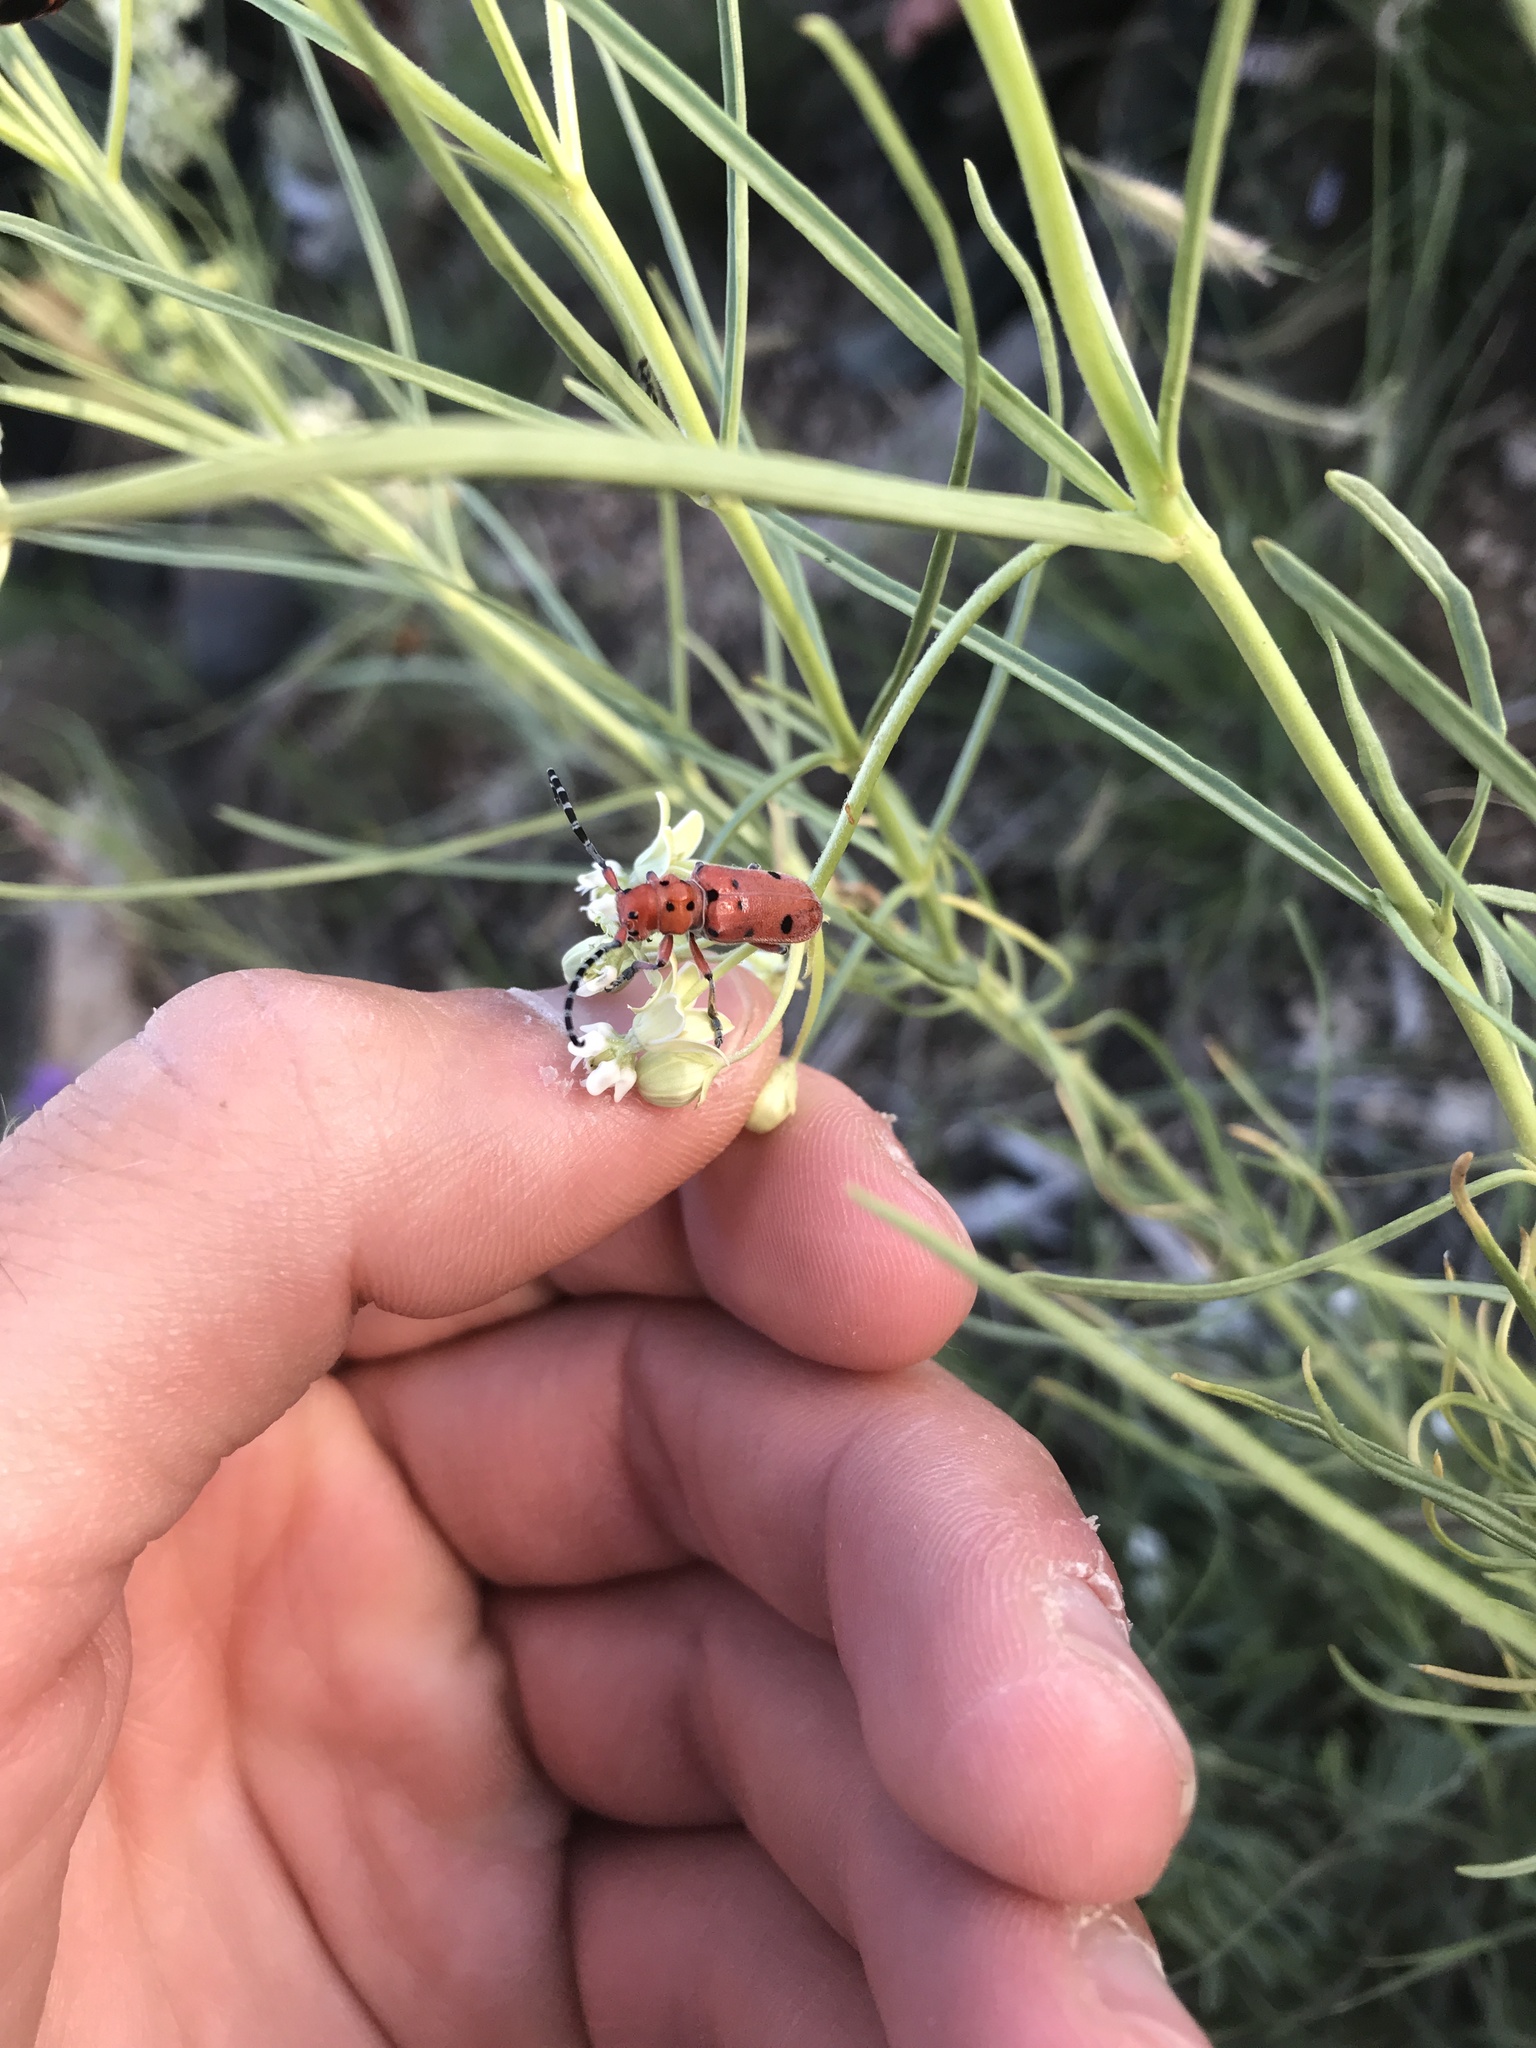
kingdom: Animalia
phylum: Arthropoda
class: Insecta
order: Coleoptera
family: Cerambycidae
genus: Tetraopes
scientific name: Tetraopes femoratus
